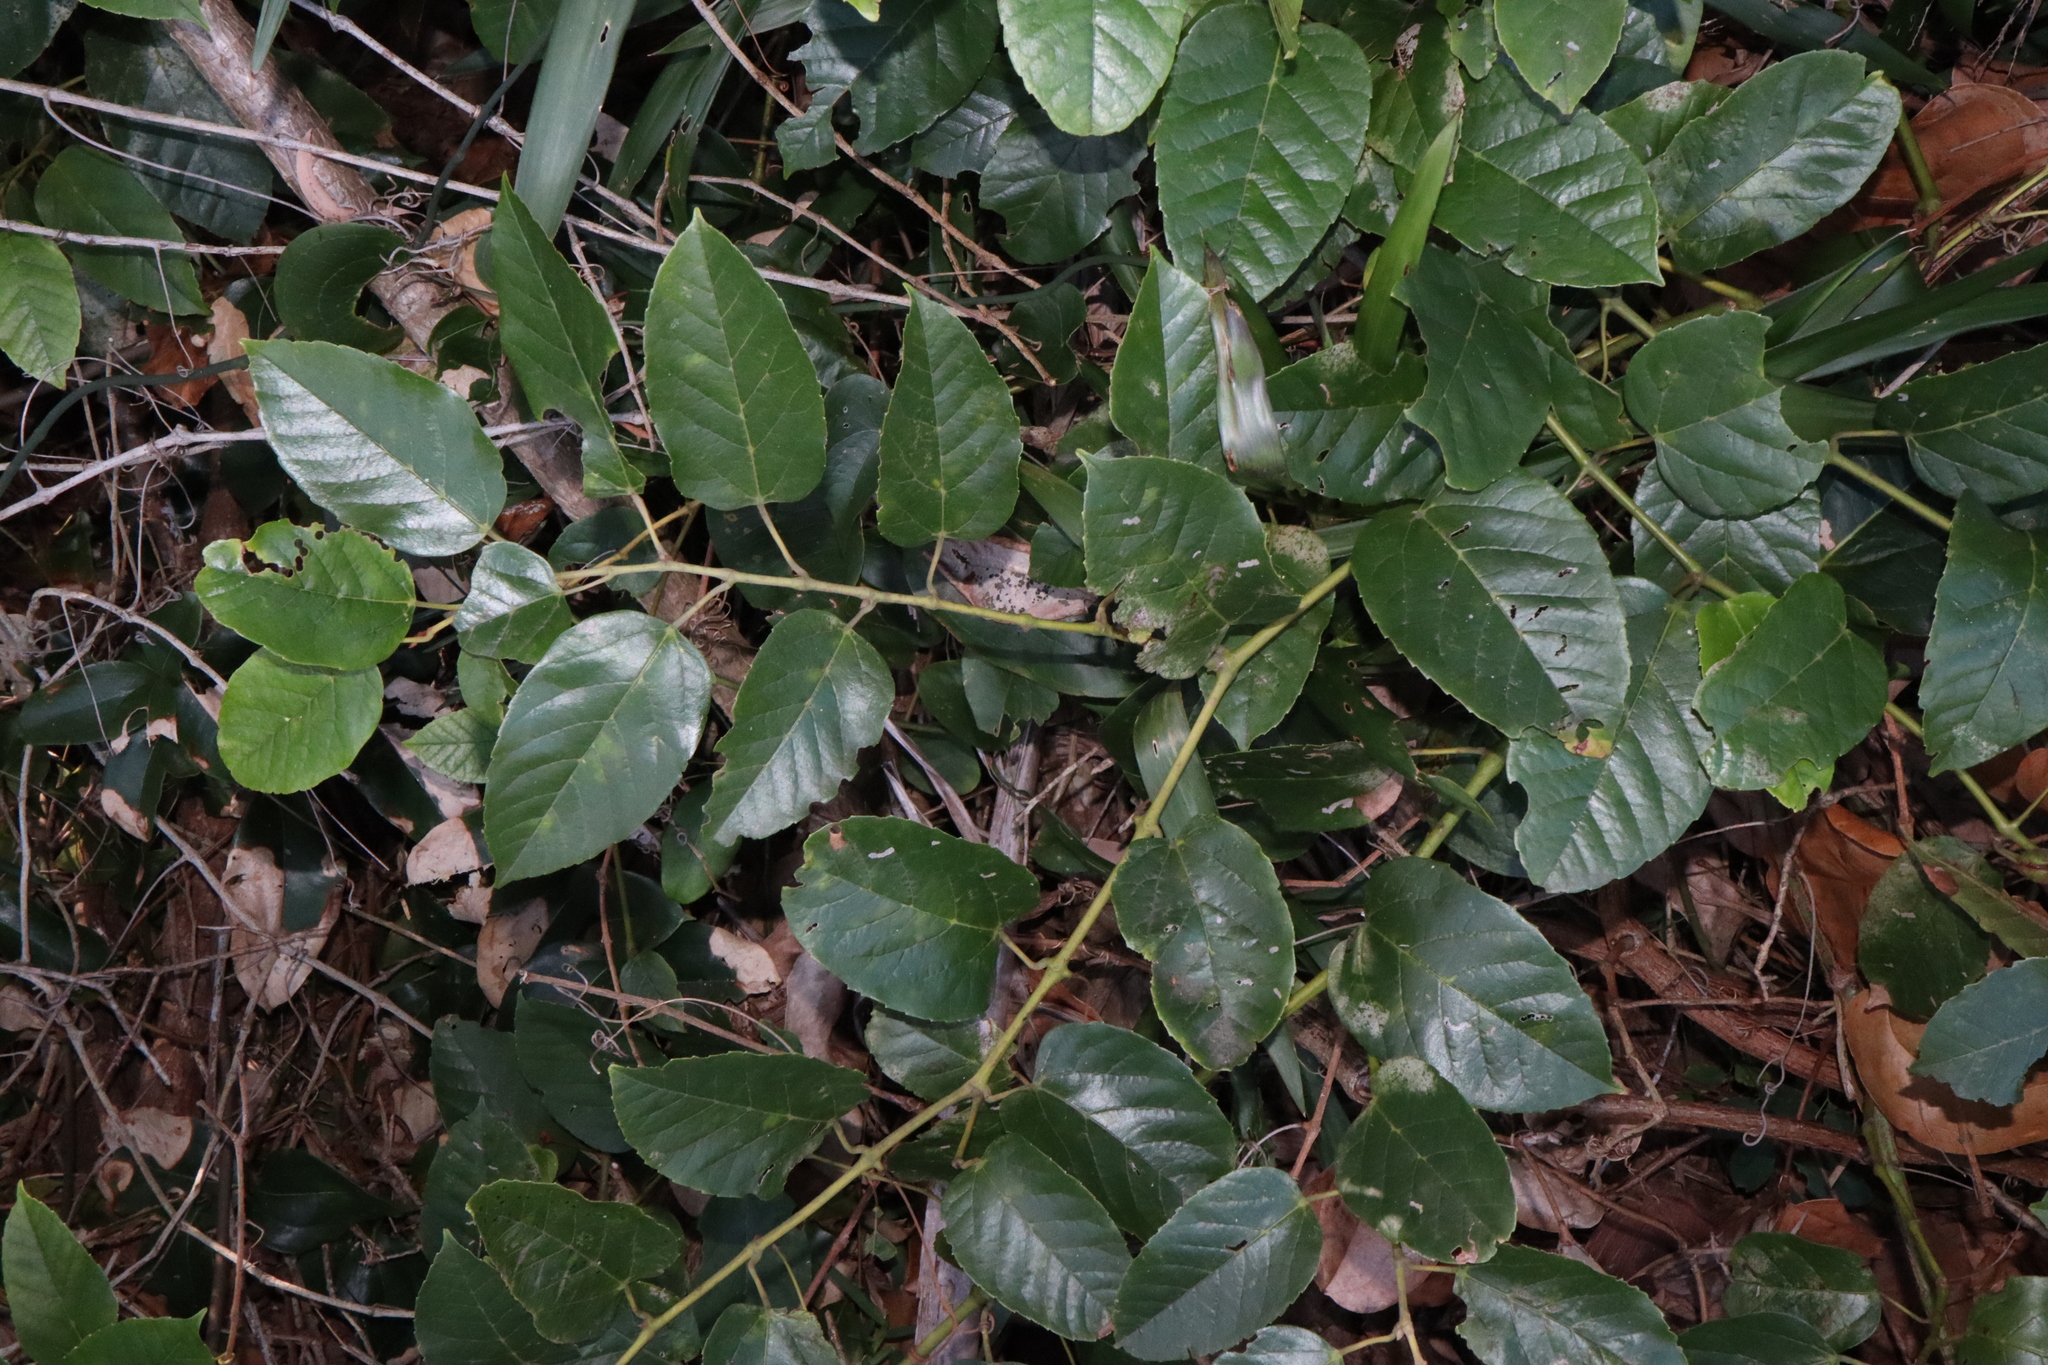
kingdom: Plantae
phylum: Tracheophyta
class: Magnoliopsida
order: Vitales
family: Vitaceae
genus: Cissus
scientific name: Cissus antarctica
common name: Kangaroo vine
